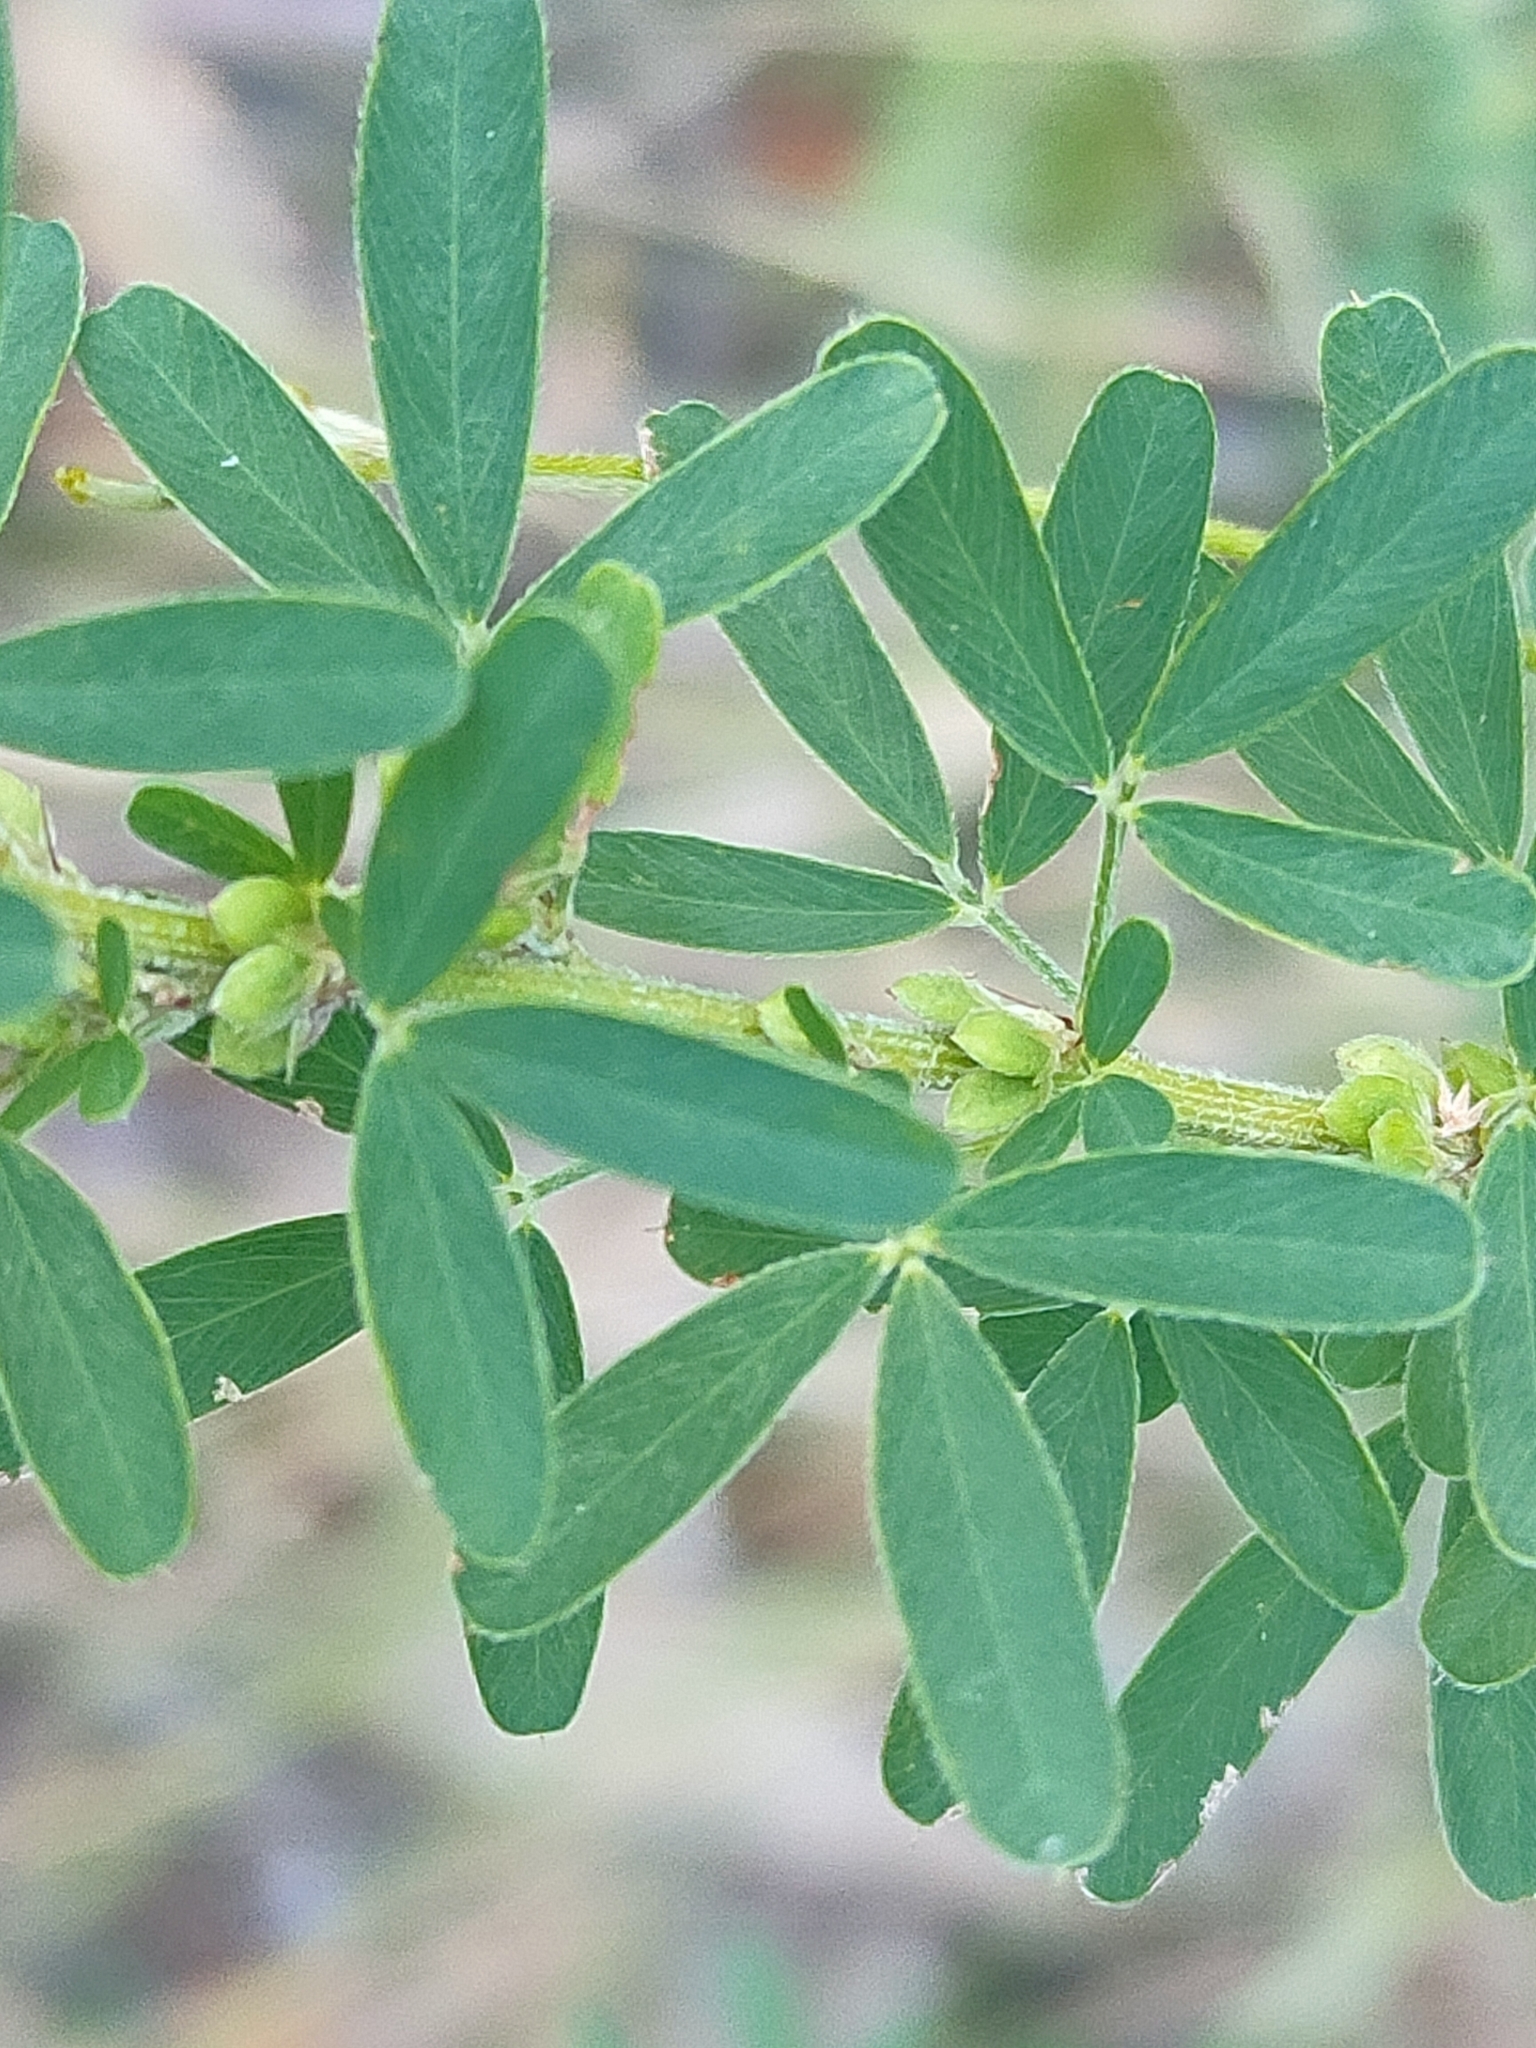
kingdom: Plantae
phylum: Tracheophyta
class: Magnoliopsida
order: Fabales
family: Fabaceae
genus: Lespedeza
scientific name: Lespedeza juncea
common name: Siberian lespedeza
